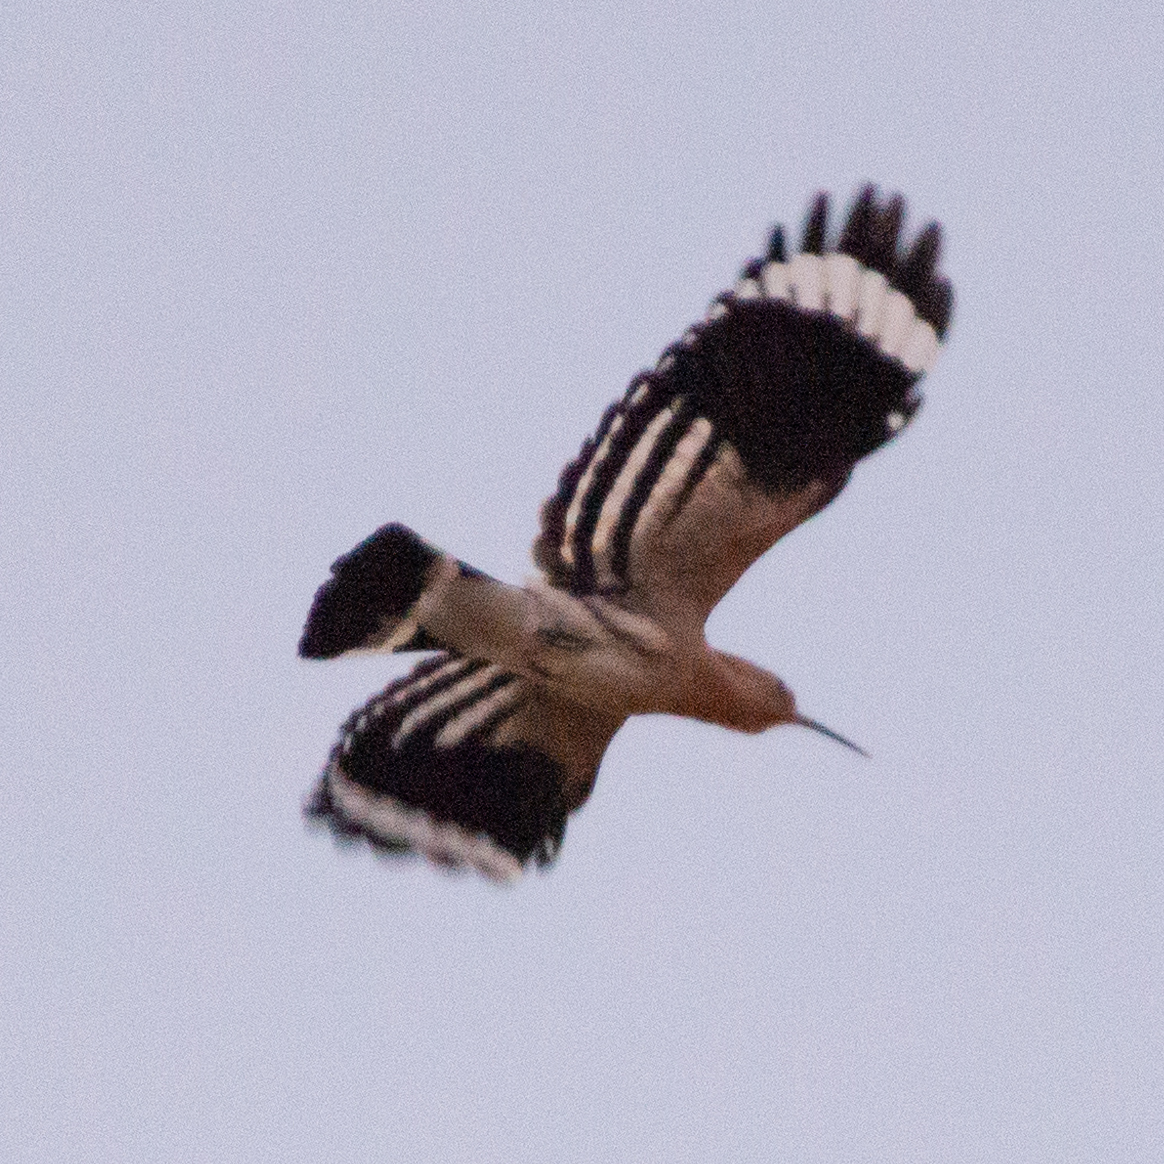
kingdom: Animalia
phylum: Chordata
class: Aves
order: Bucerotiformes
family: Upupidae
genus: Upupa
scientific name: Upupa epops
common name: Eurasian hoopoe
